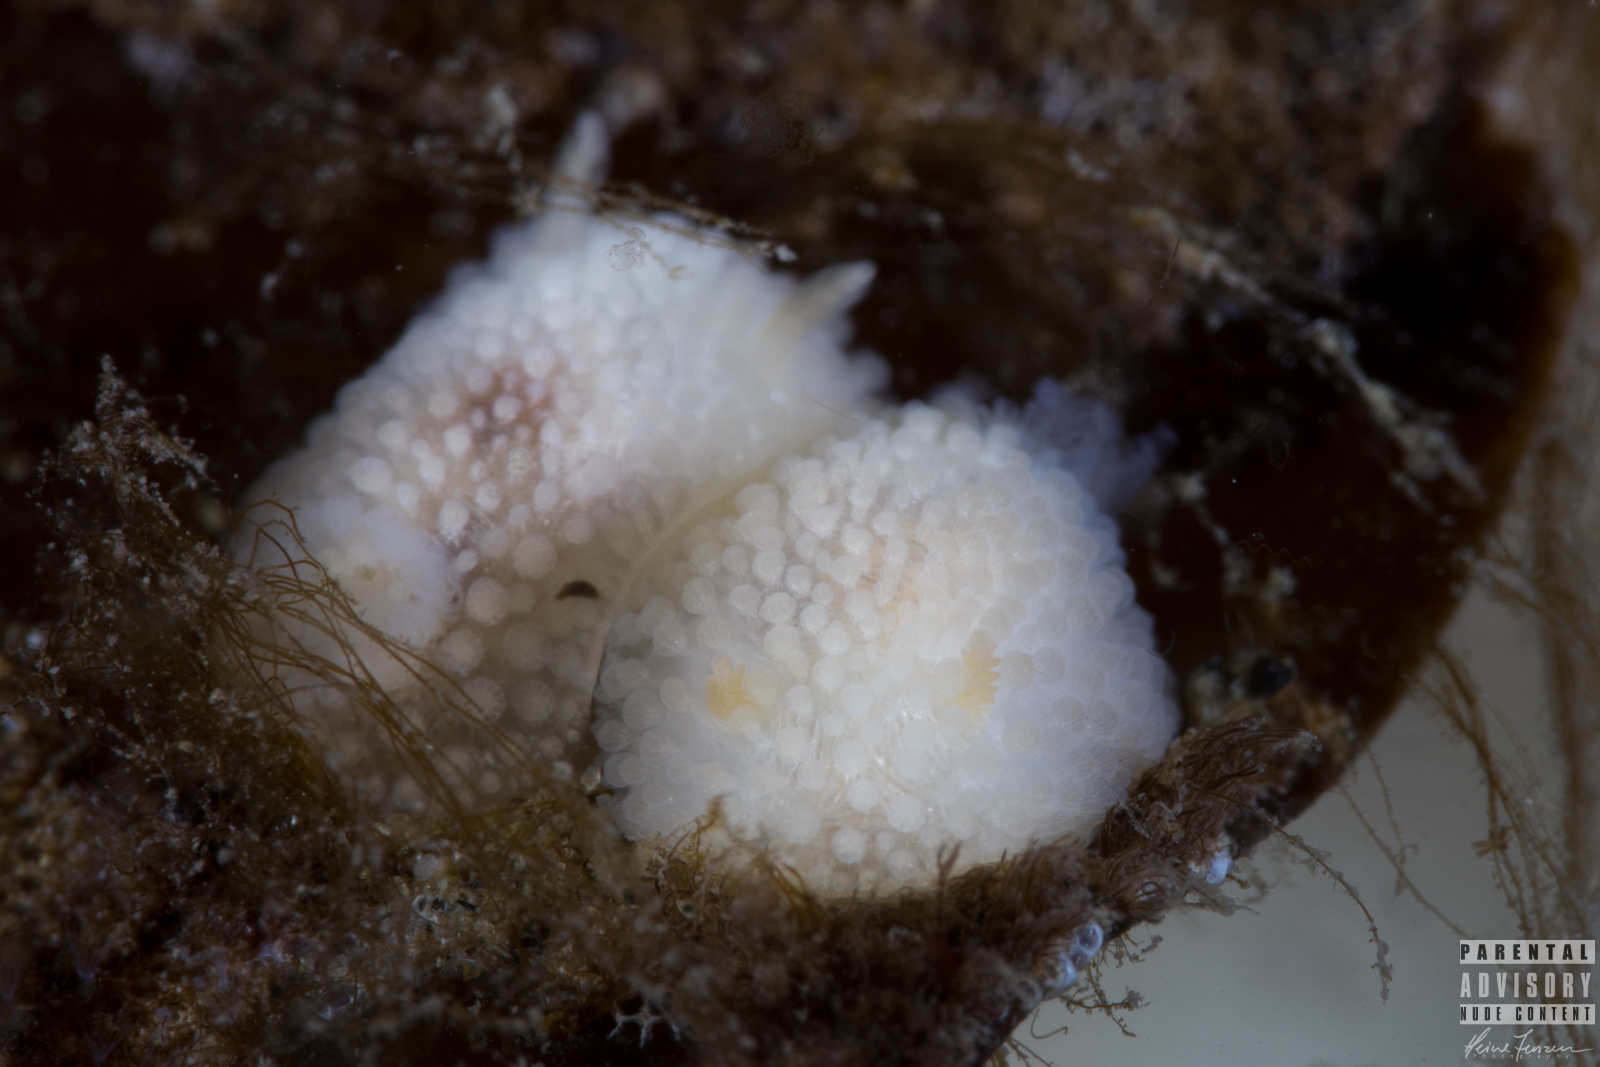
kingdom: Animalia
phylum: Mollusca
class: Gastropoda
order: Nudibranchia
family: Onchidorididae
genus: Onchidoris
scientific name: Onchidoris muricata
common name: Rough doris
